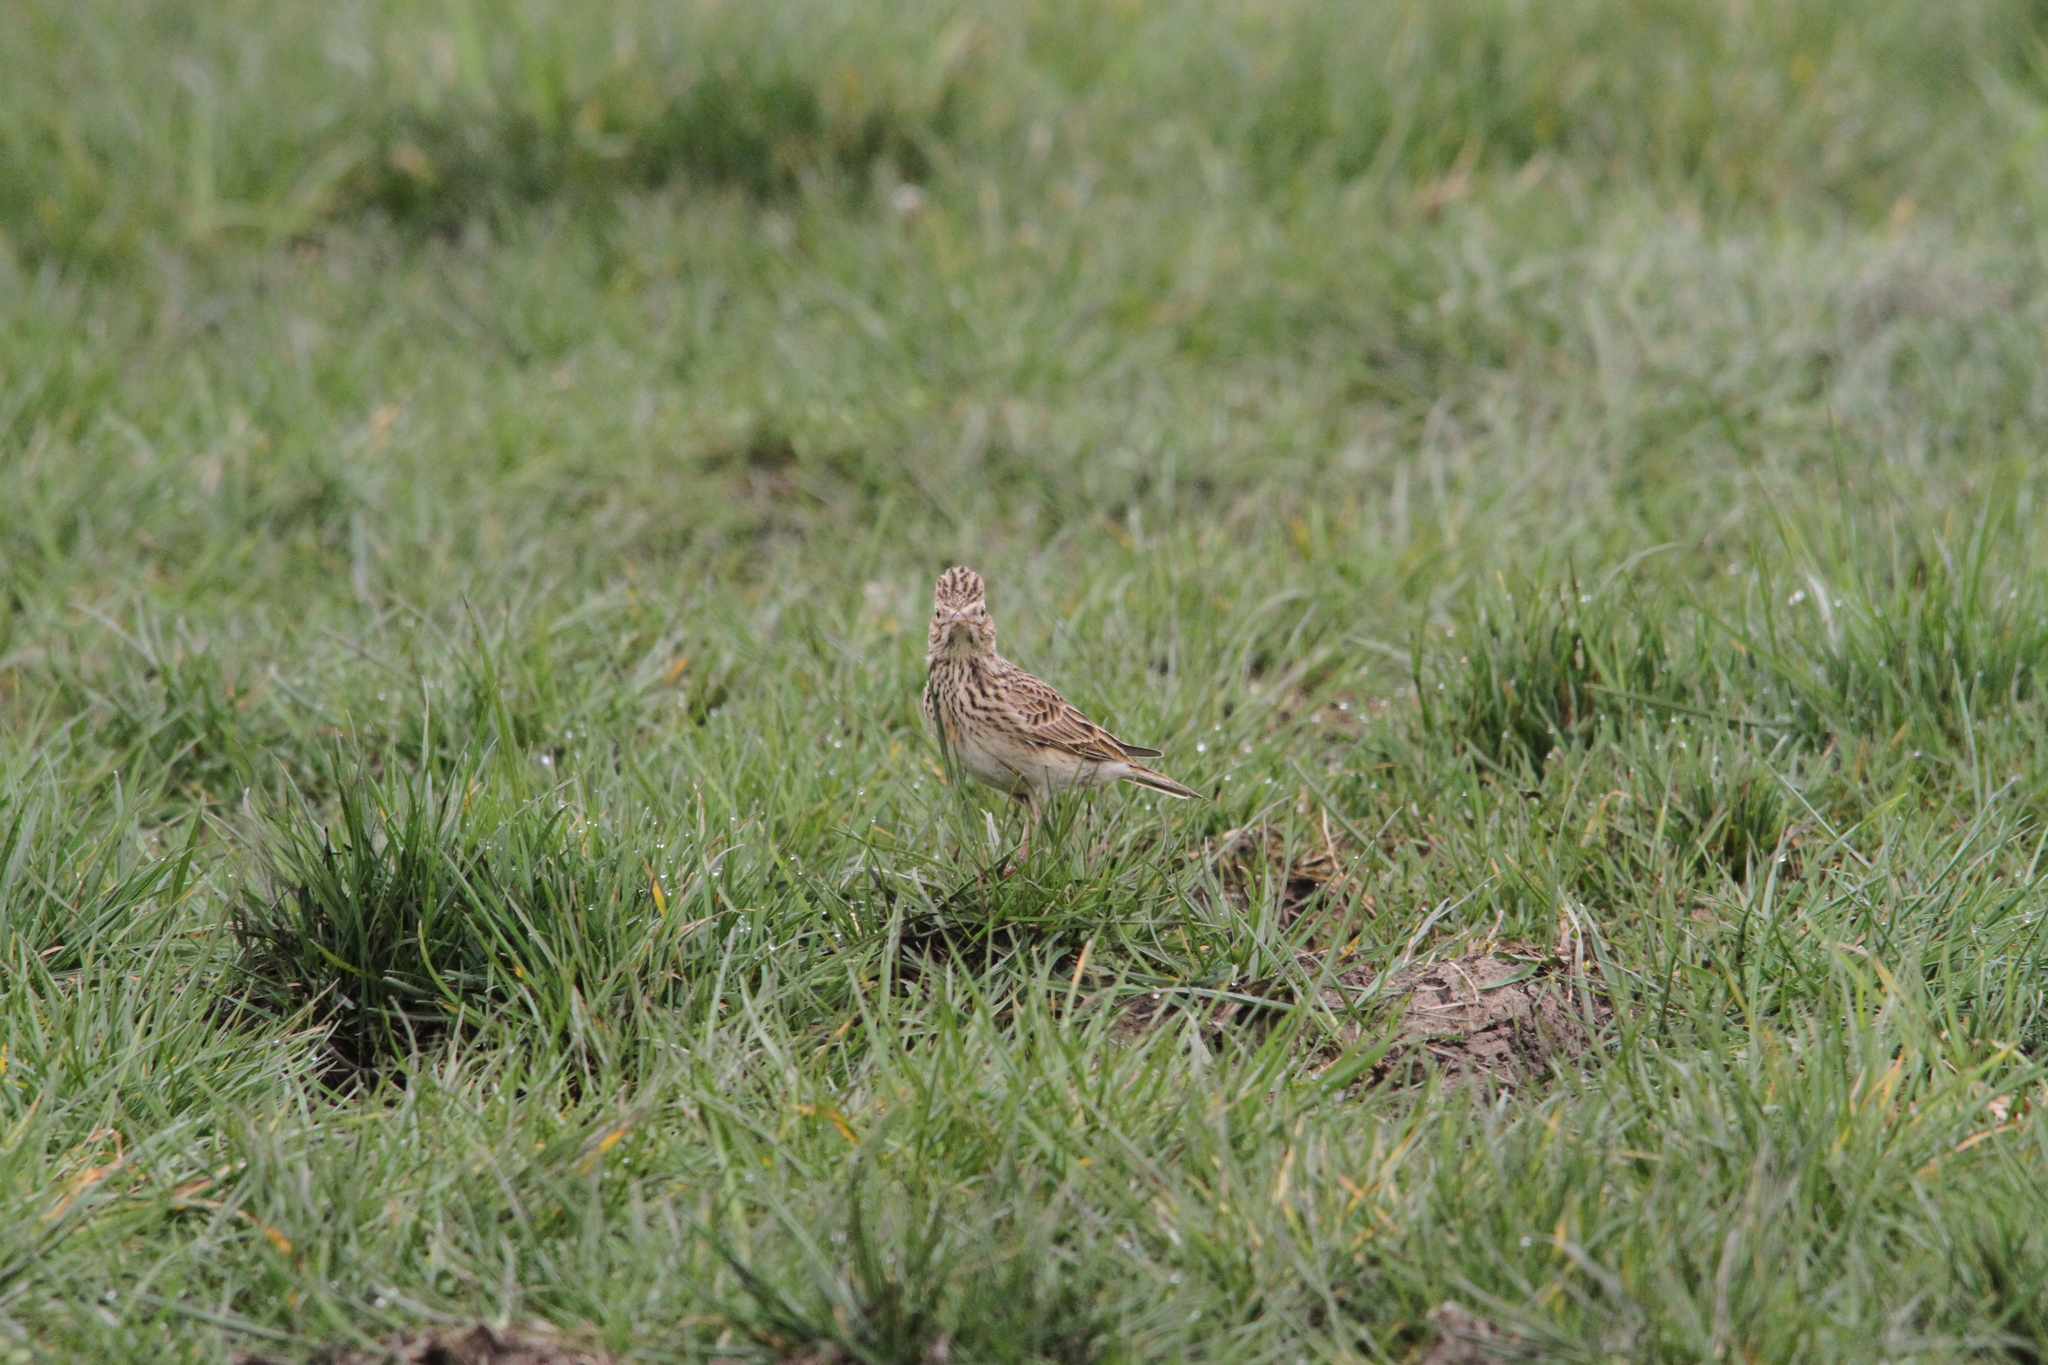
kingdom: Animalia
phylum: Chordata
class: Aves
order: Passeriformes
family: Alaudidae
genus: Alauda
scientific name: Alauda arvensis
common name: Eurasian skylark
